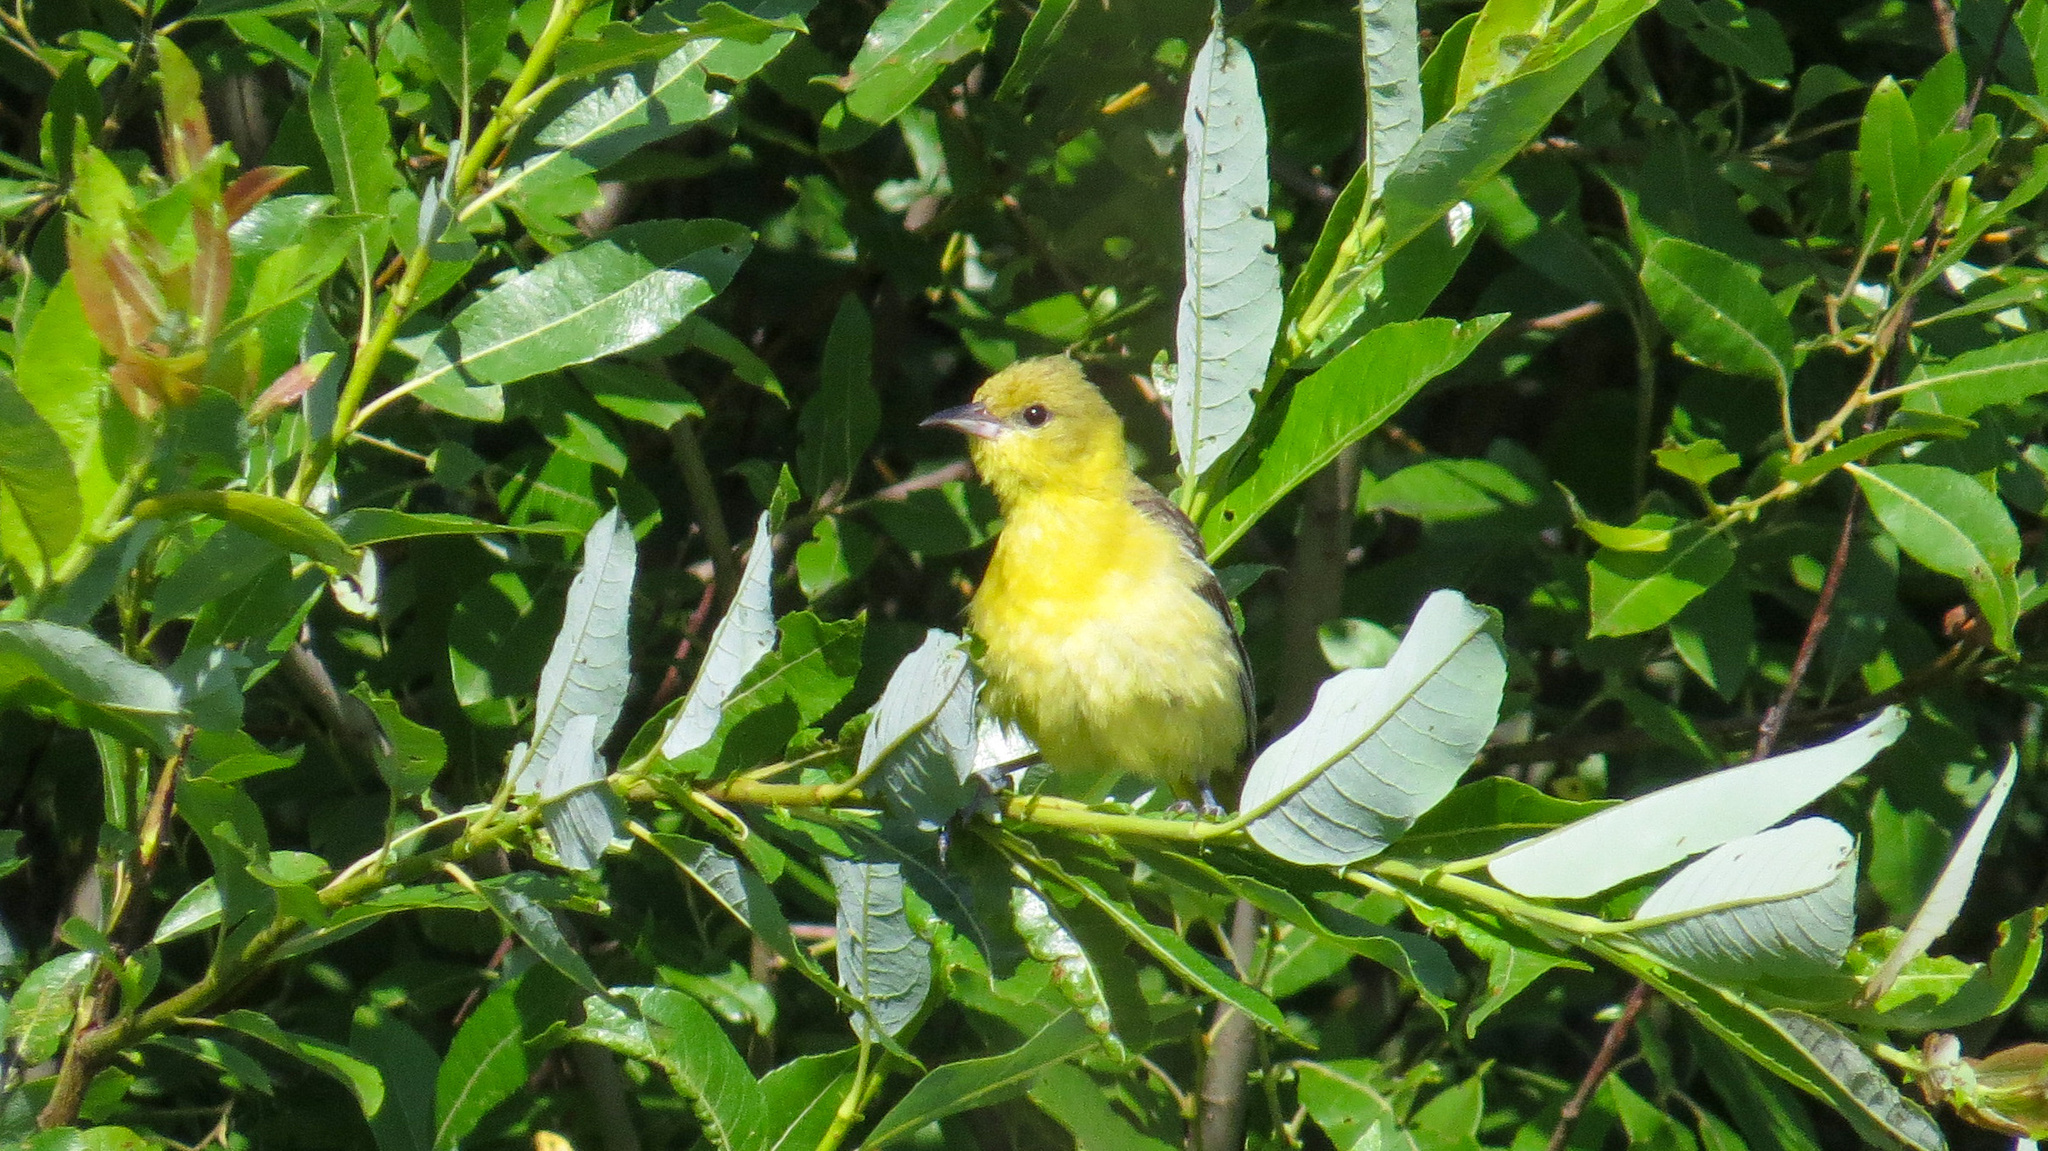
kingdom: Animalia
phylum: Chordata
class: Aves
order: Passeriformes
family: Icteridae
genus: Icterus
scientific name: Icterus spurius
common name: Orchard oriole
